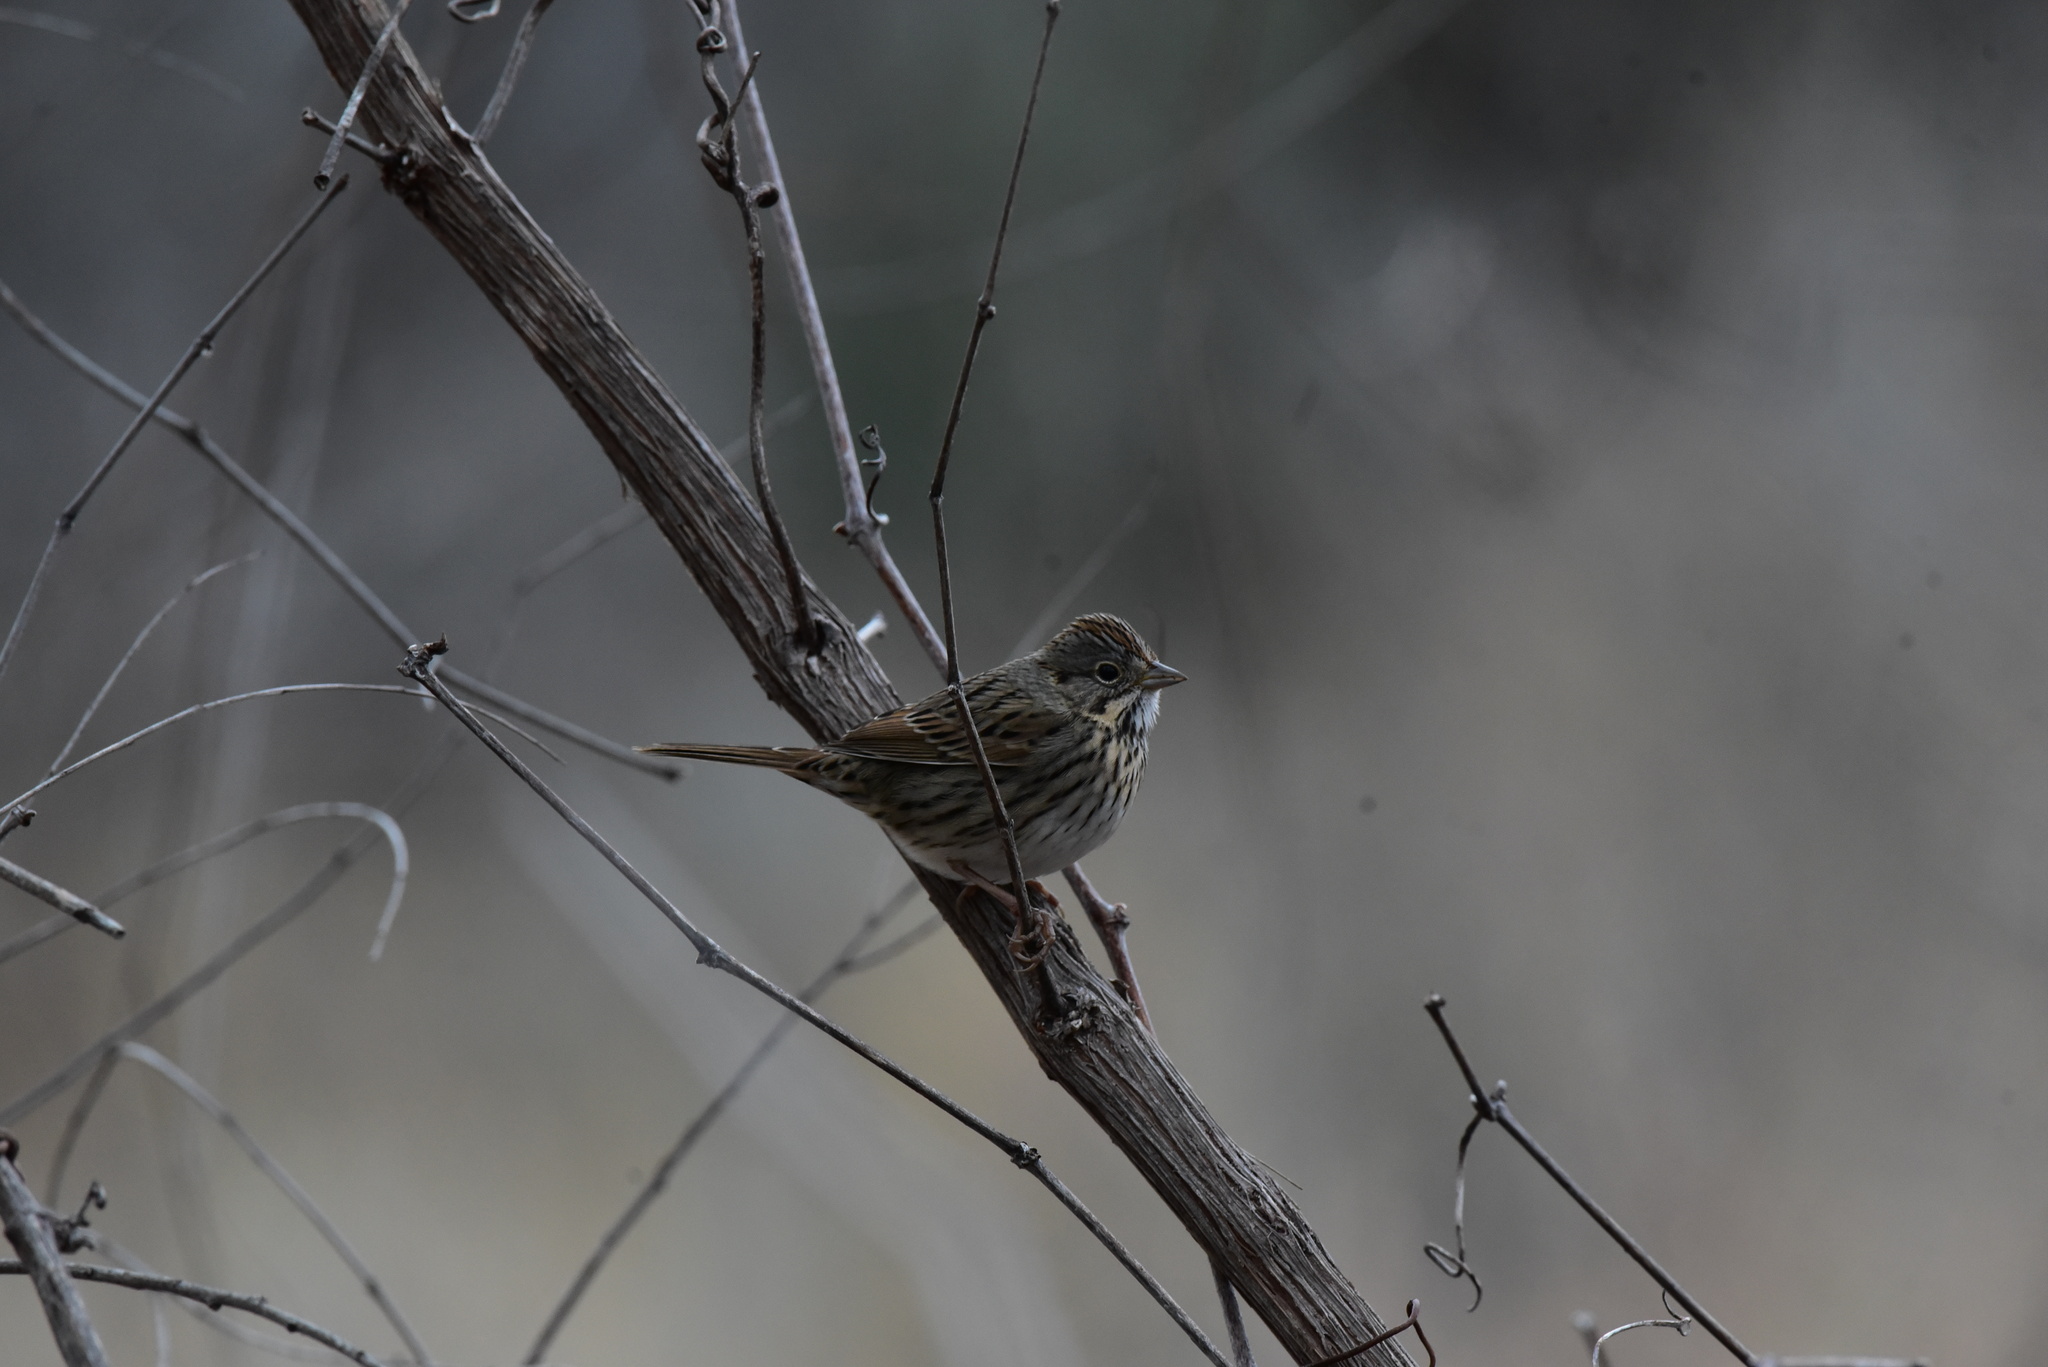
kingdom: Animalia
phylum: Chordata
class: Aves
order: Passeriformes
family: Passerellidae
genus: Melospiza
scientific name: Melospiza lincolnii
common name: Lincoln's sparrow
